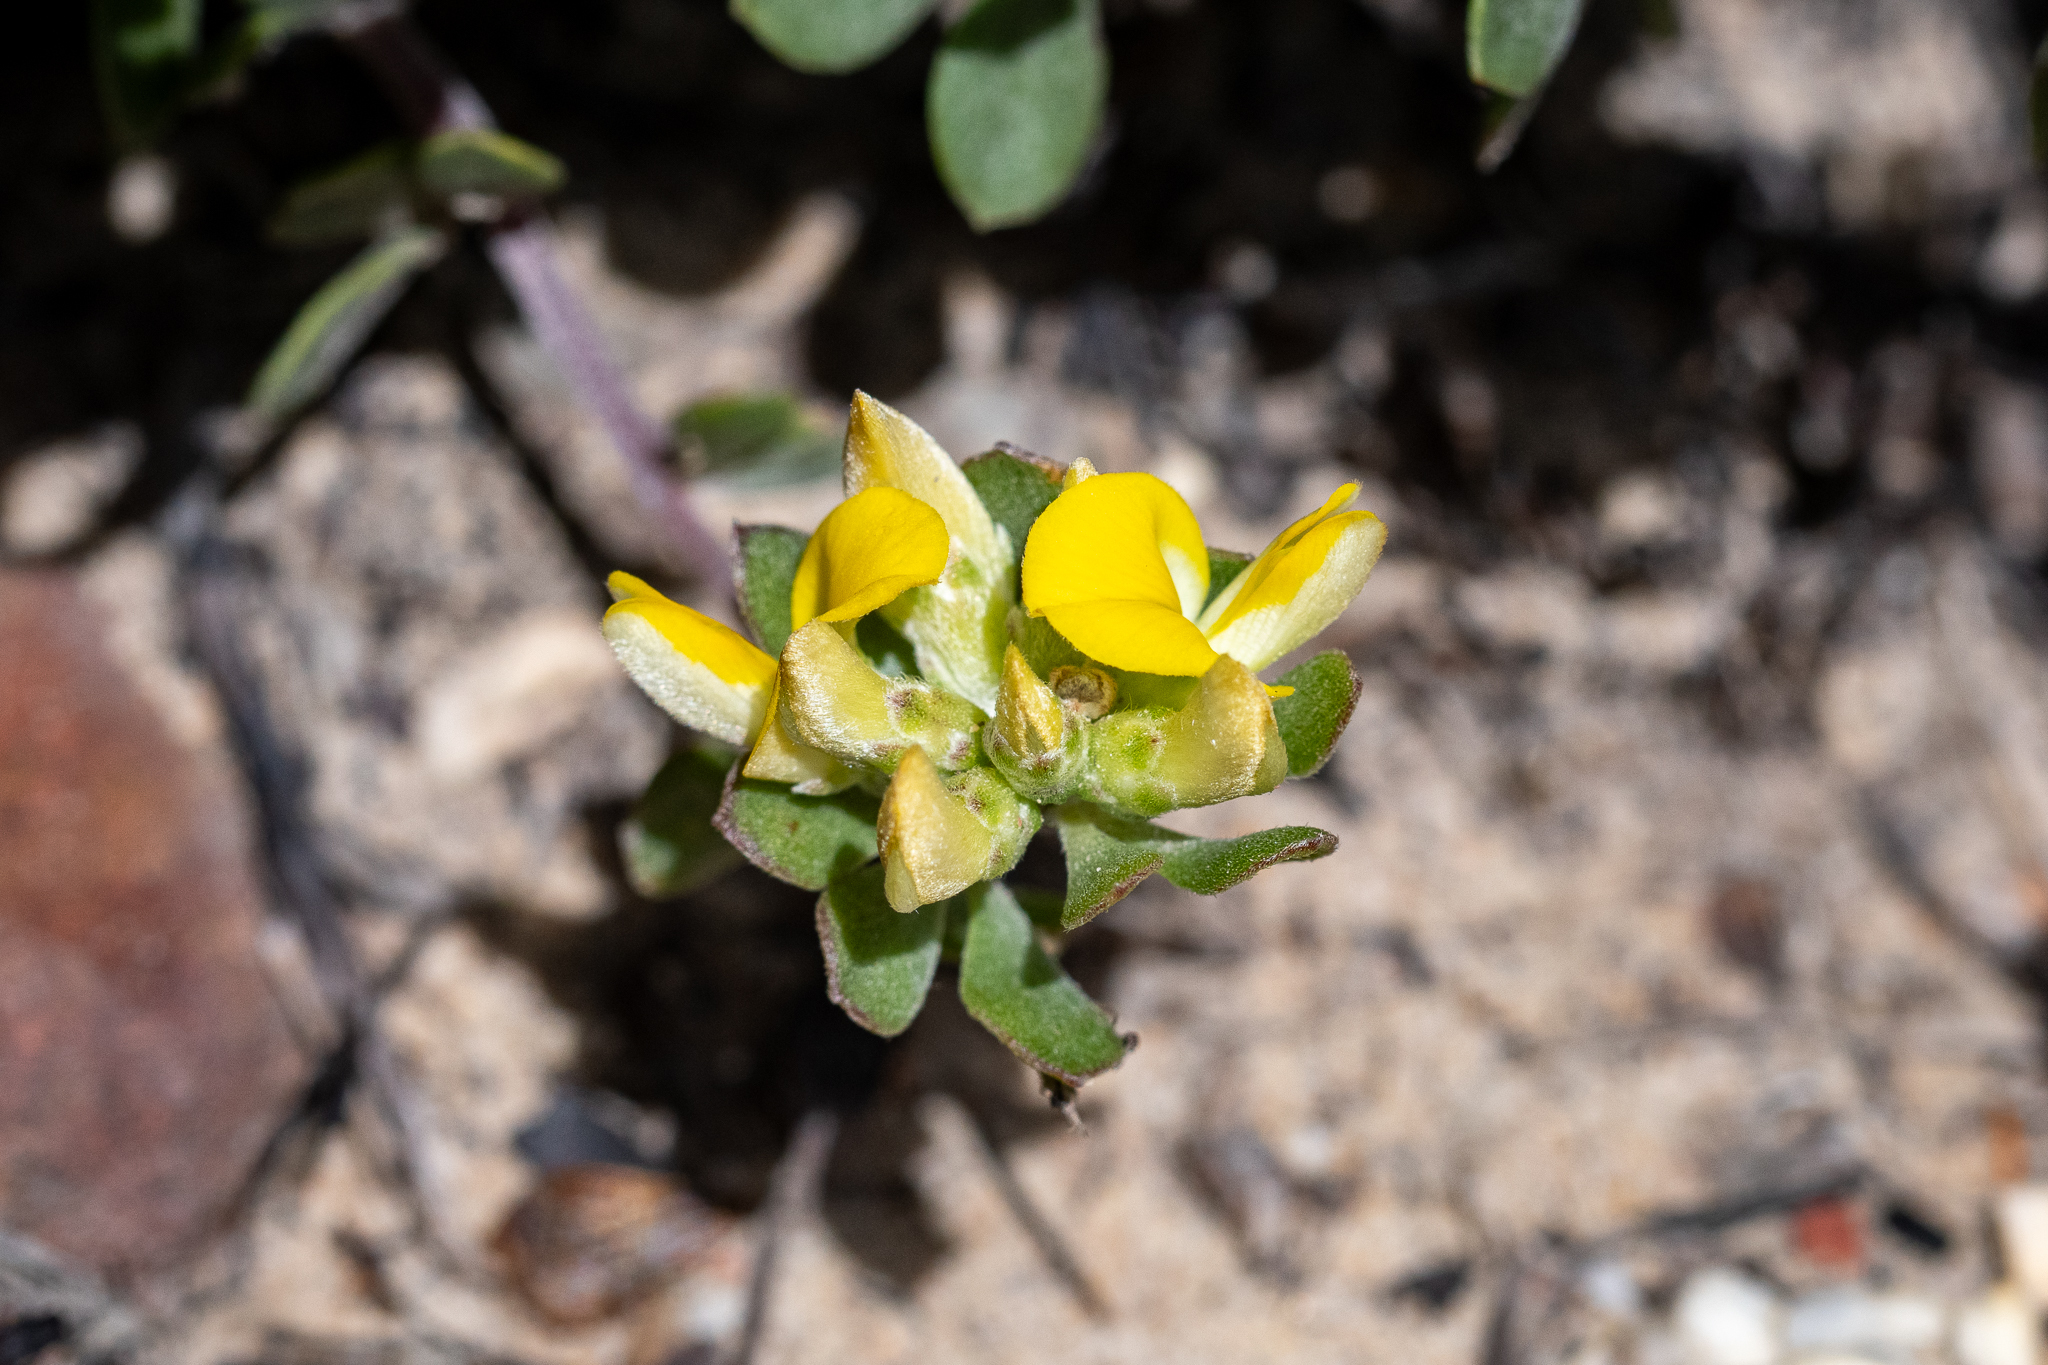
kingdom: Plantae
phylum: Tracheophyta
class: Magnoliopsida
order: Fabales
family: Fabaceae
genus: Aspalathus
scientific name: Aspalathus marginata
